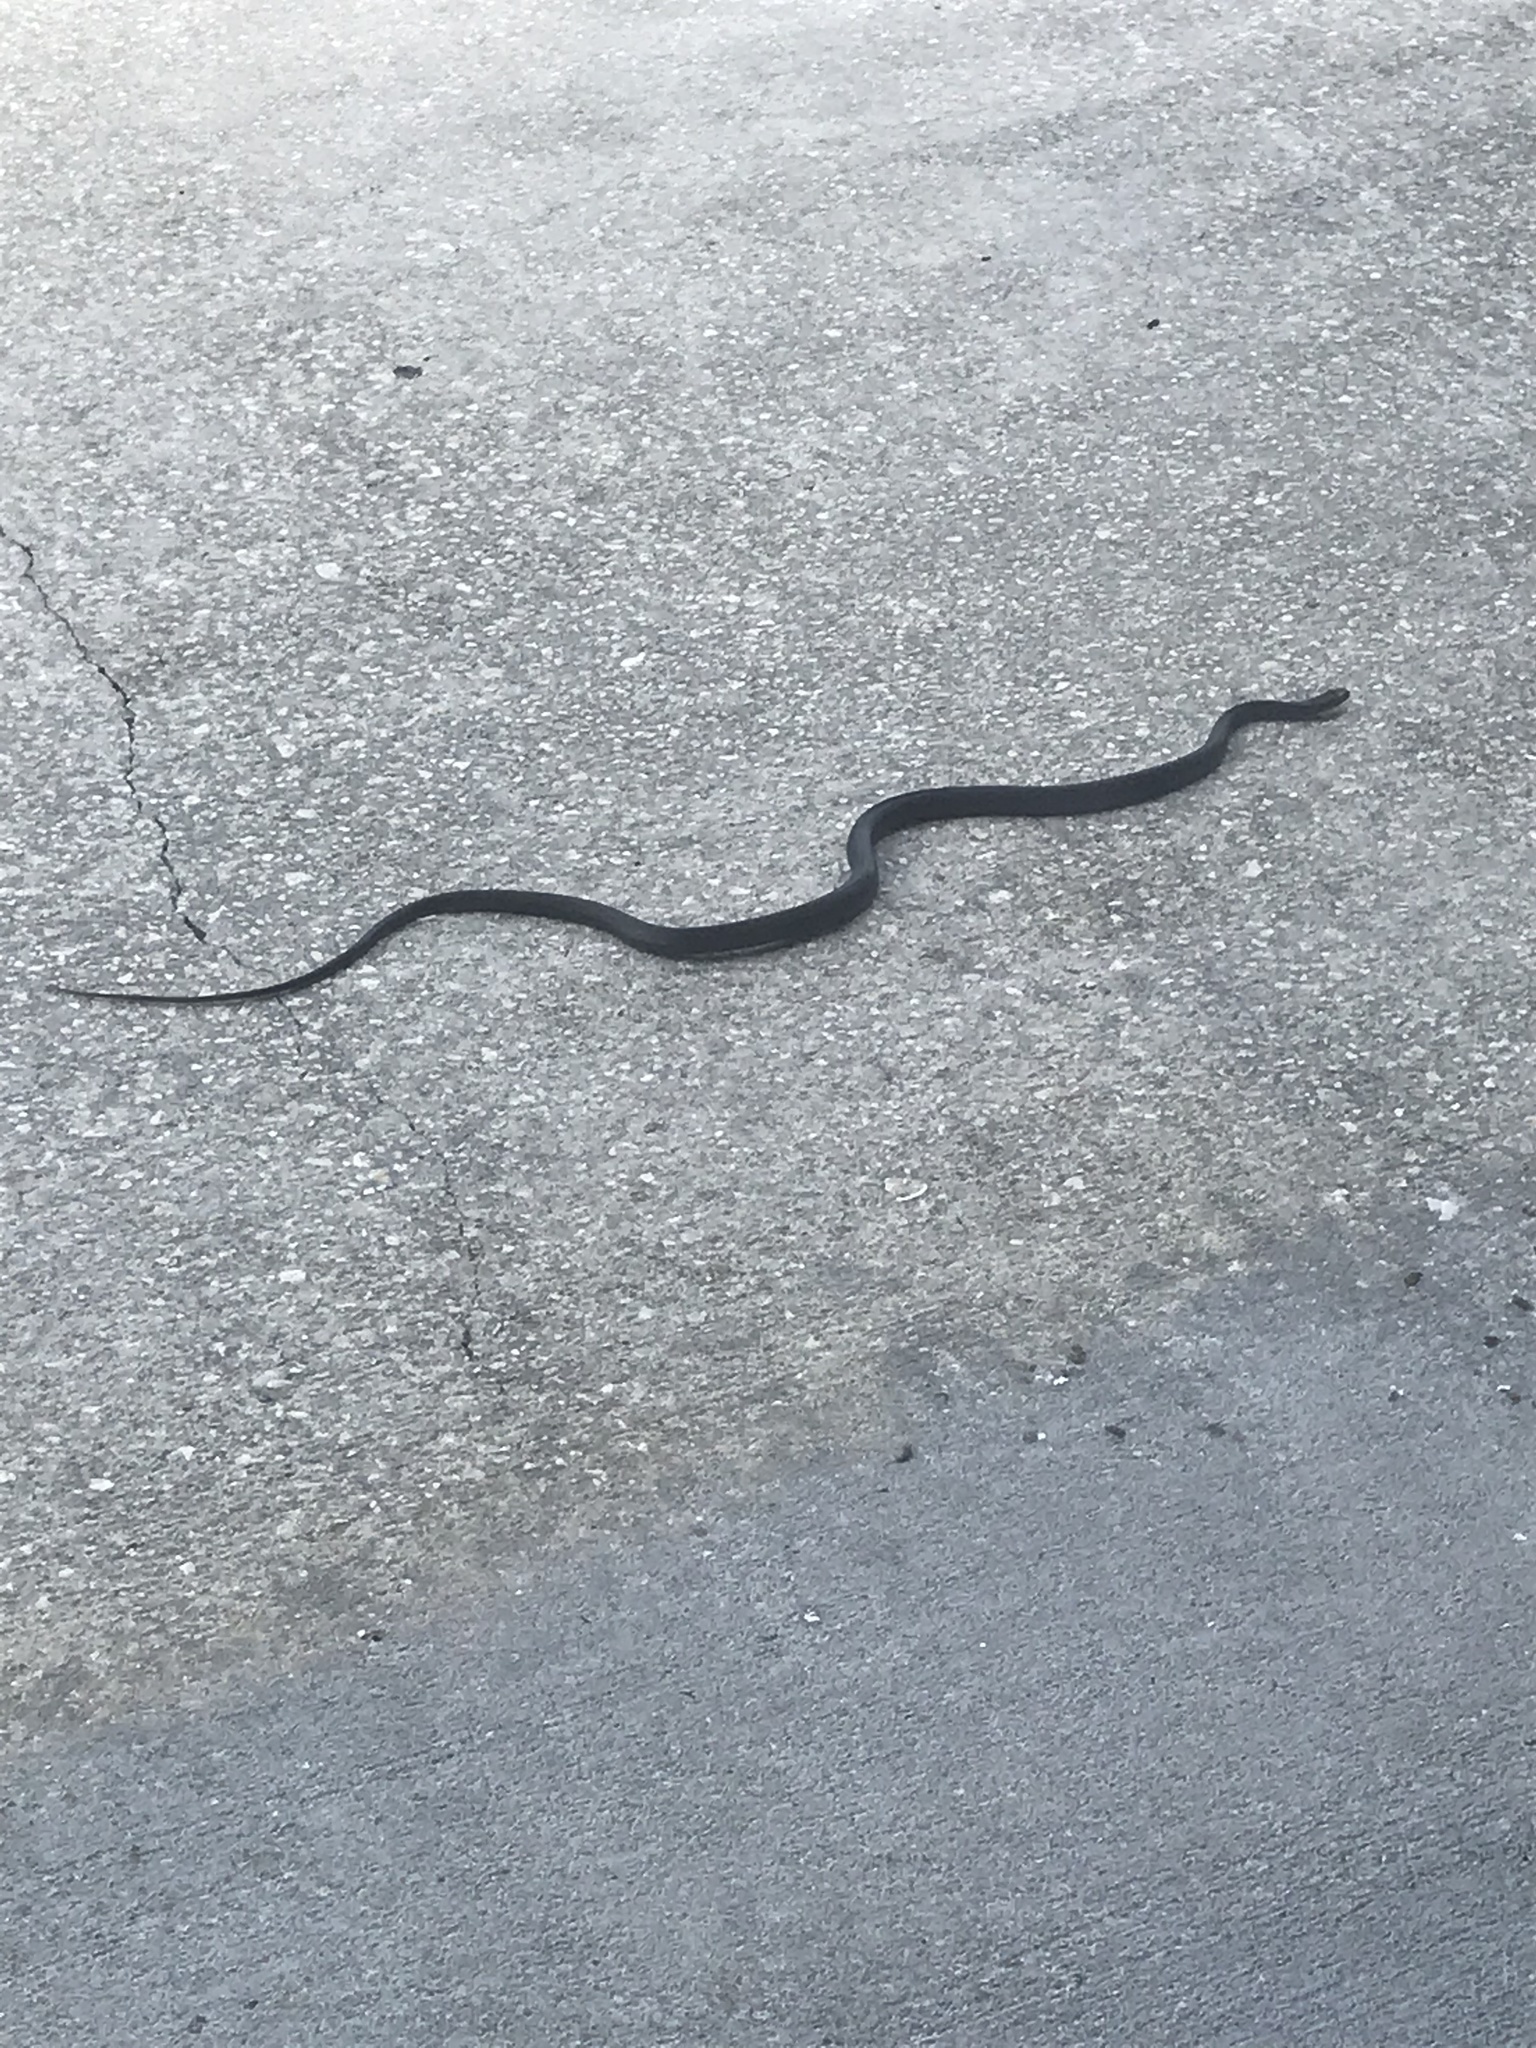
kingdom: Animalia
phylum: Chordata
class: Squamata
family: Colubridae
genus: Coluber
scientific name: Coluber constrictor
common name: Eastern racer
